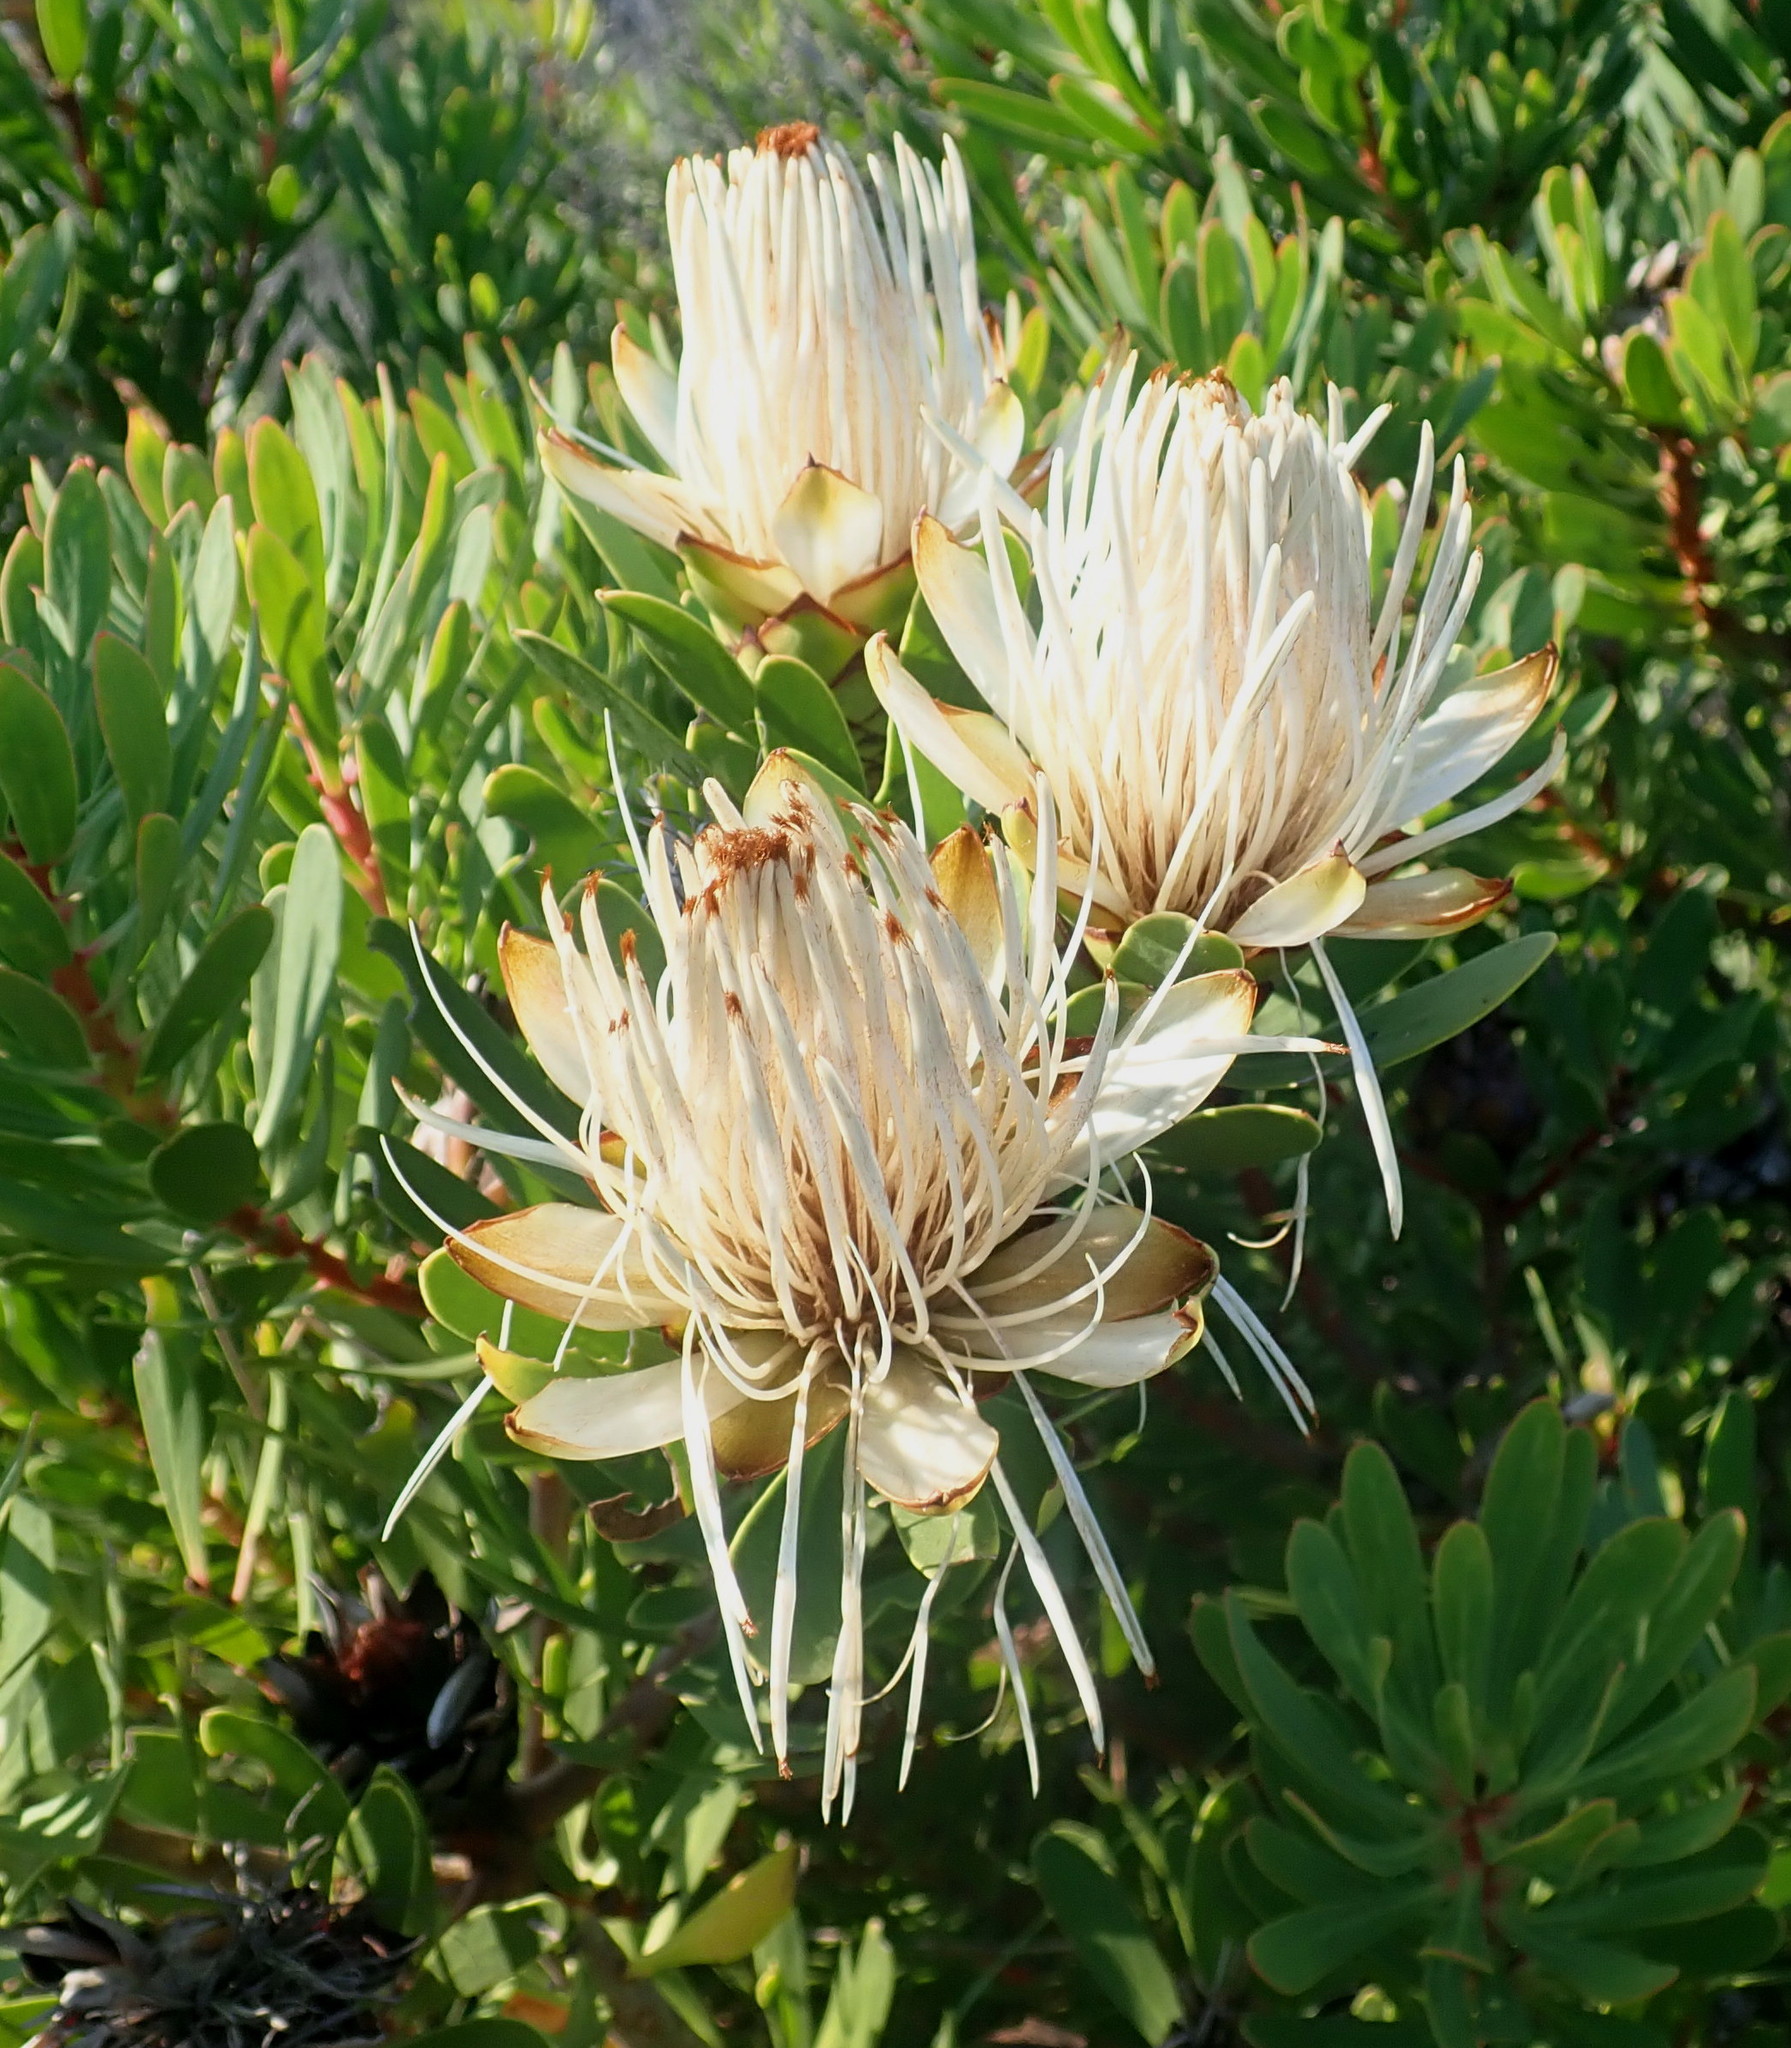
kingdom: Plantae
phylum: Tracheophyta
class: Magnoliopsida
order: Proteales
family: Proteaceae
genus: Protea
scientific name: Protea lanceolata
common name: Lance-leaved protea
